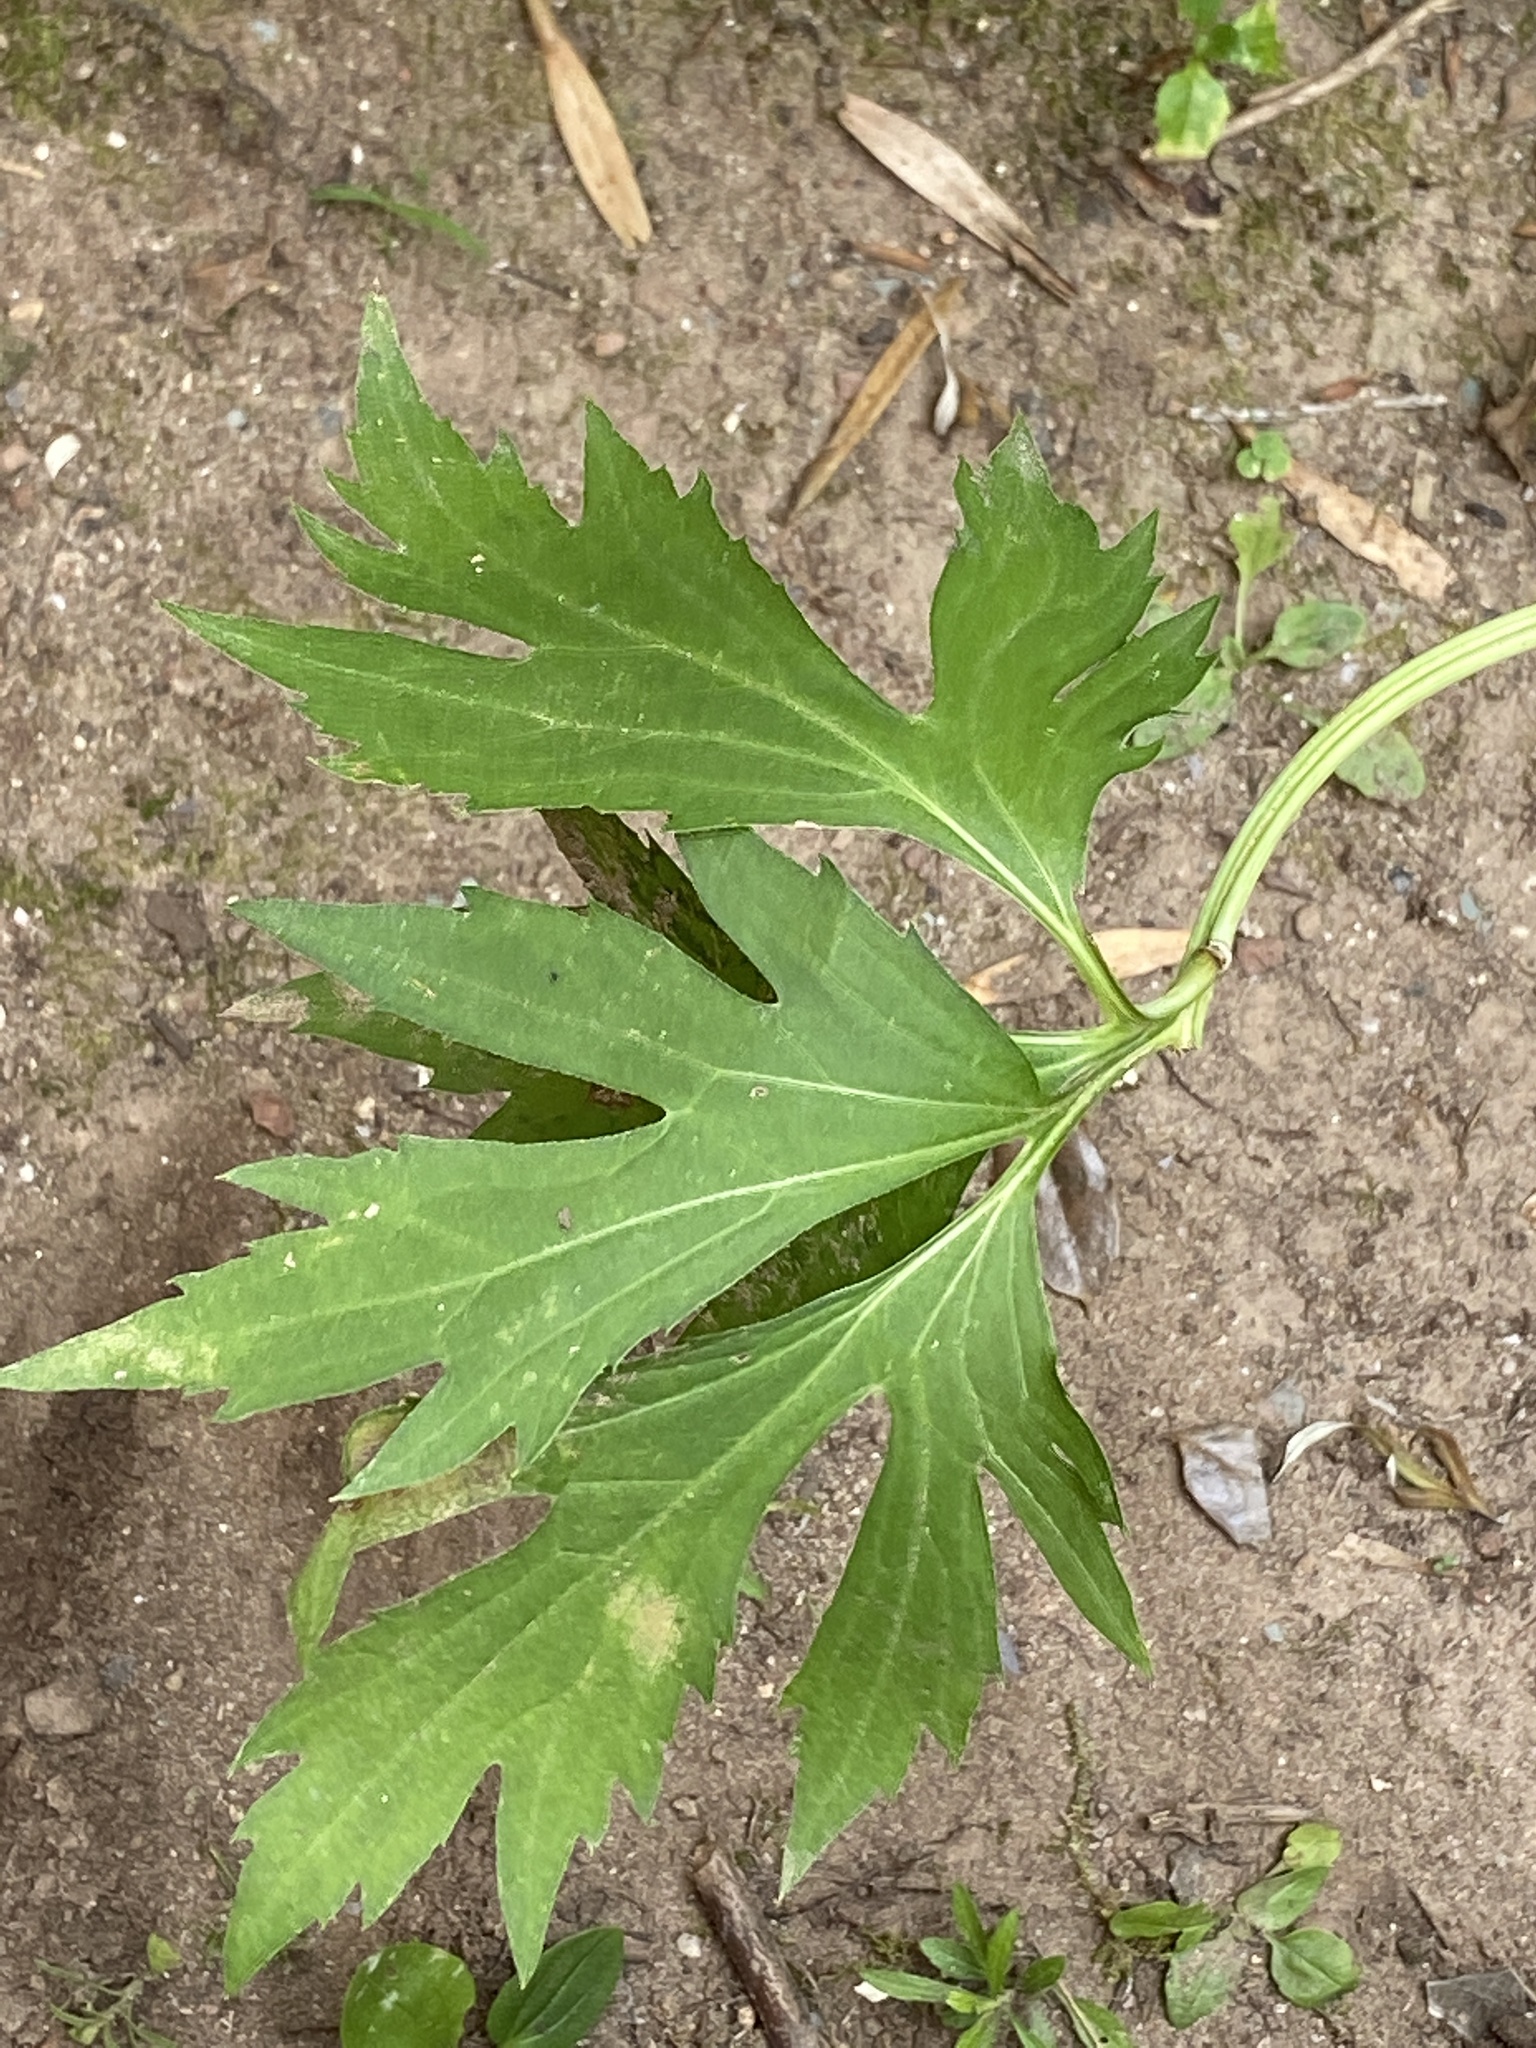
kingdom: Plantae
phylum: Tracheophyta
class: Magnoliopsida
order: Asterales
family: Asteraceae
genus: Rudbeckia
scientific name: Rudbeckia laciniata
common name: Coneflower
